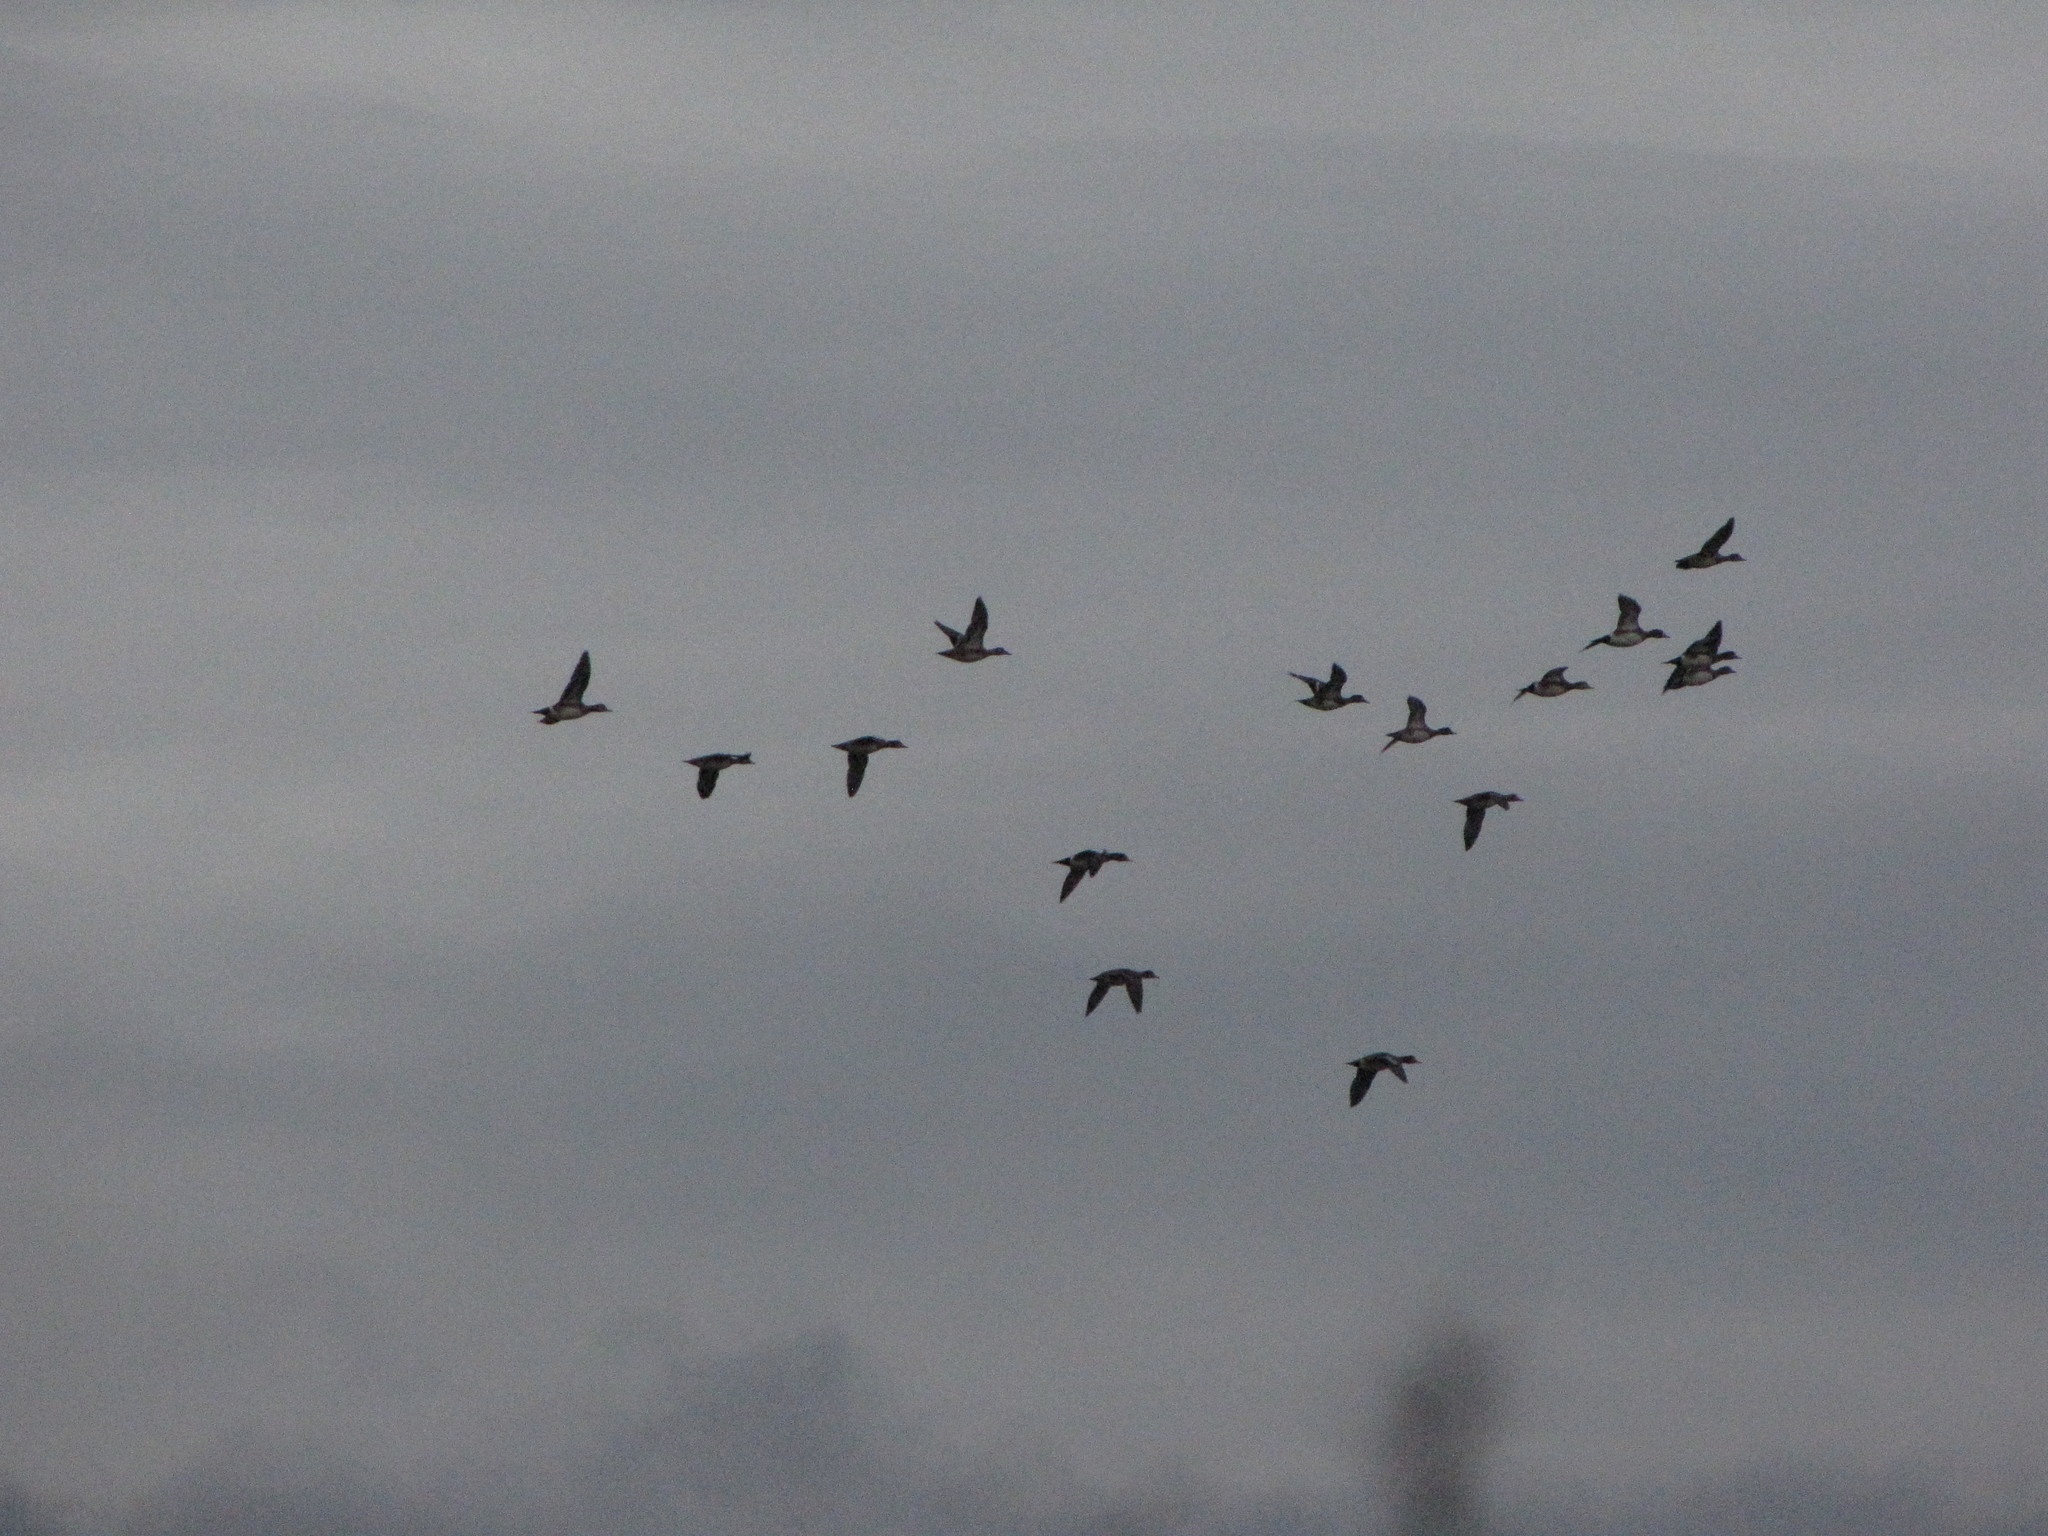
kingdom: Animalia
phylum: Chordata
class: Aves
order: Anseriformes
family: Anatidae
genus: Mareca
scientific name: Mareca americana
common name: American wigeon
